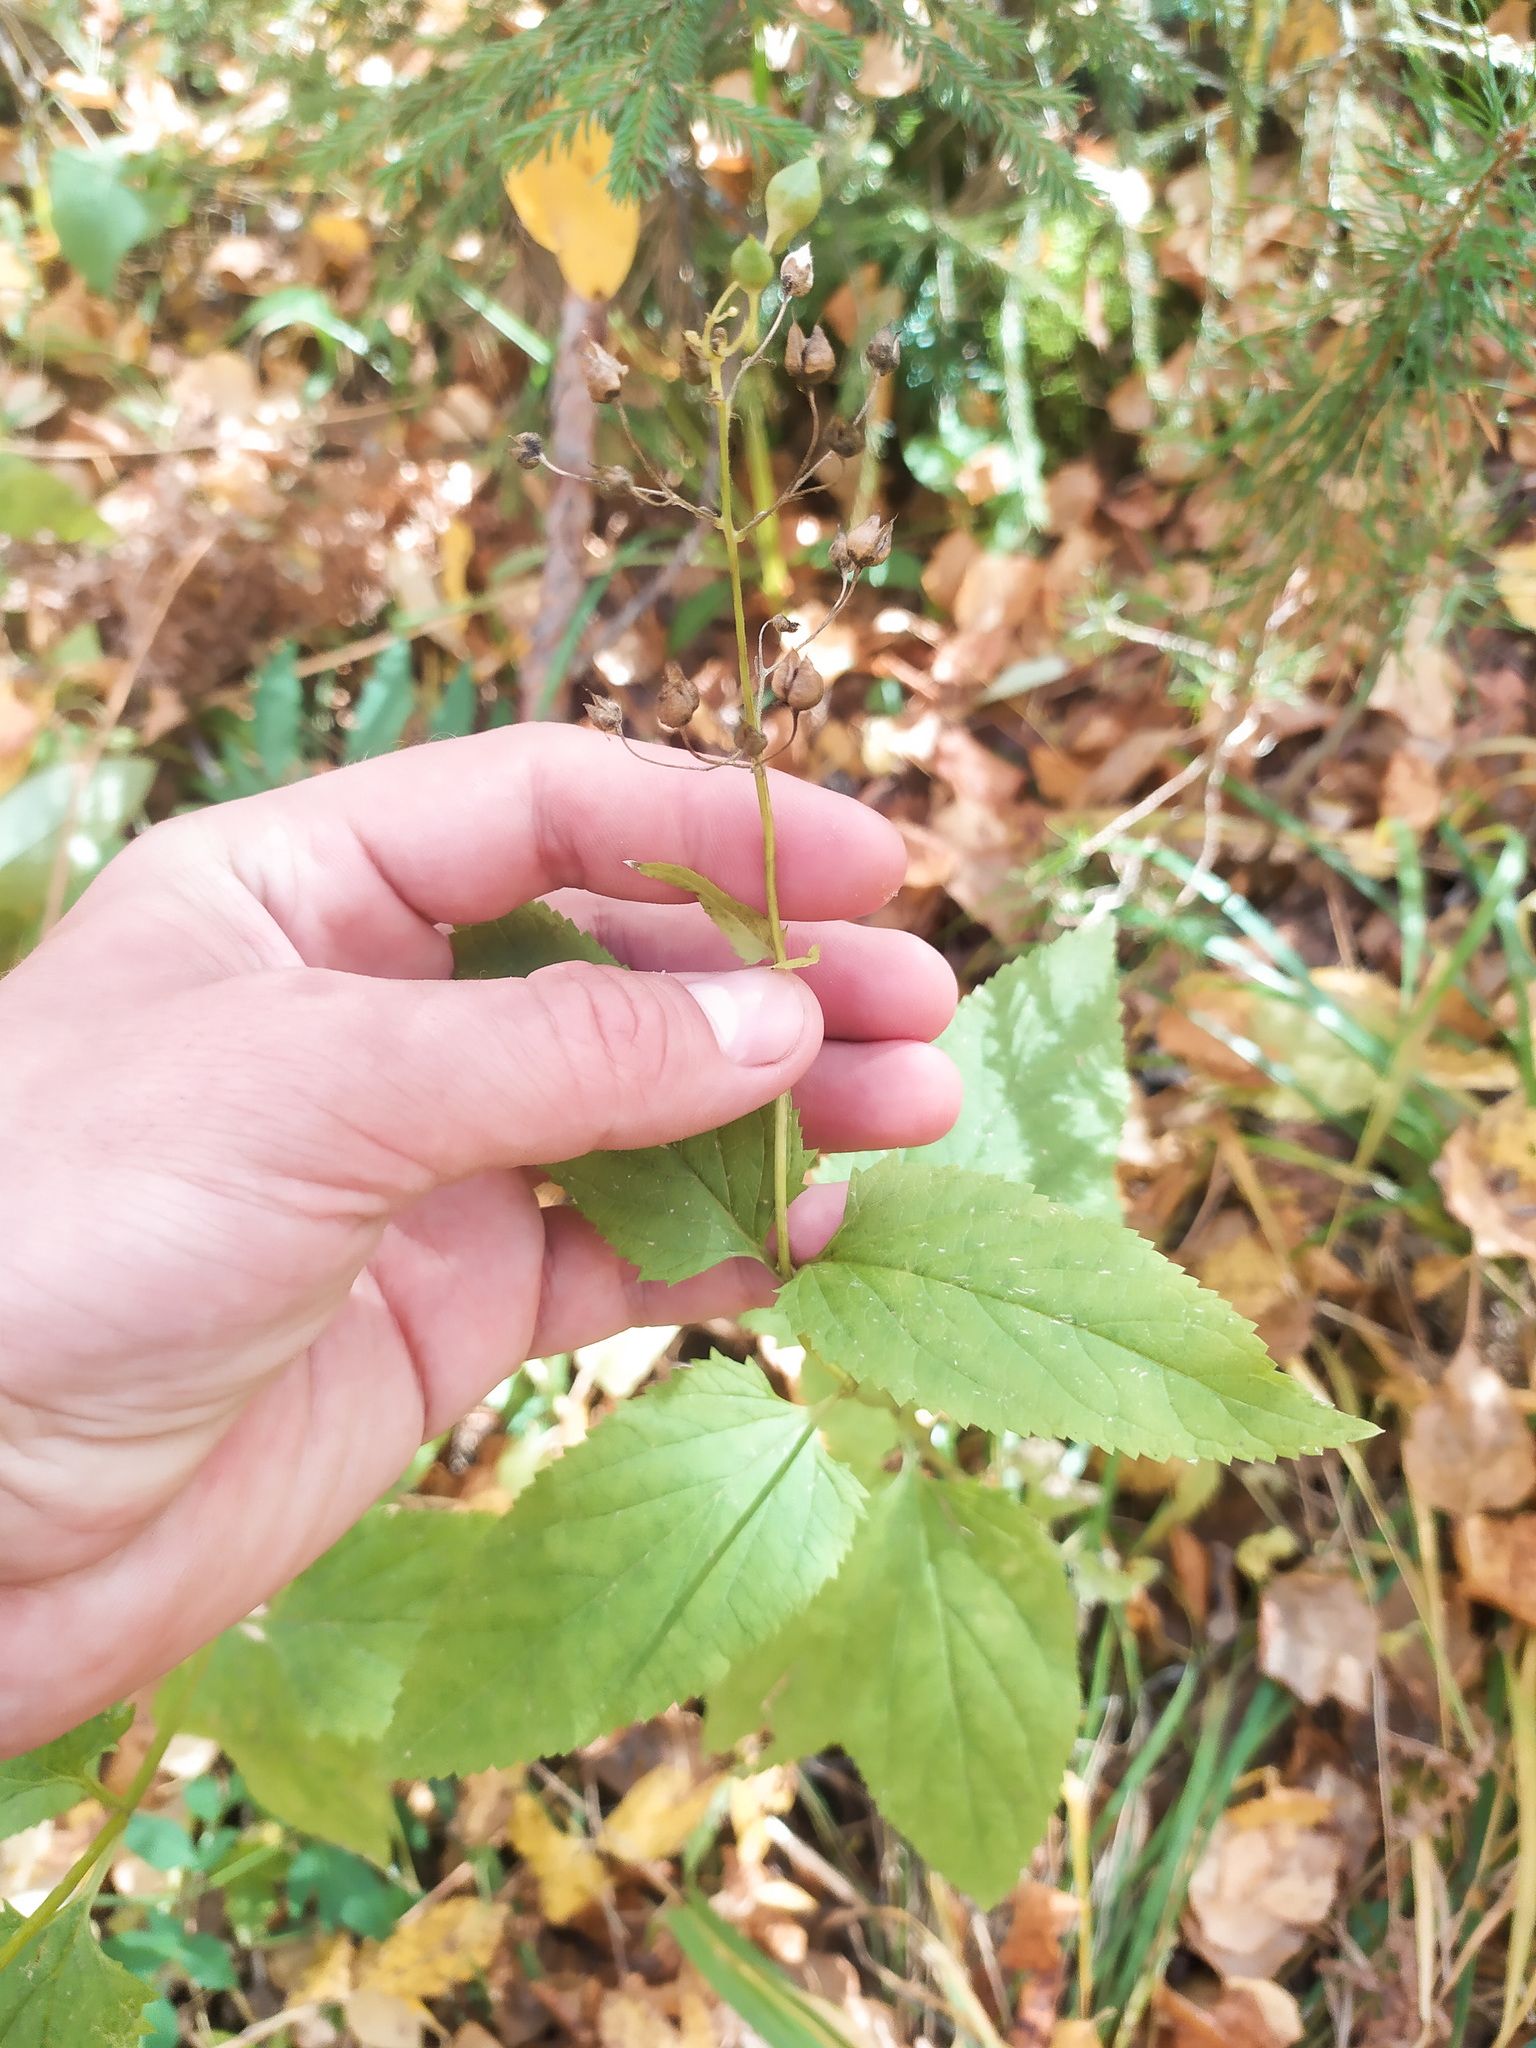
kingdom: Plantae
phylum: Tracheophyta
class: Magnoliopsida
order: Lamiales
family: Scrophulariaceae
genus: Scrophularia
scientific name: Scrophularia nodosa
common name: Common figwort
